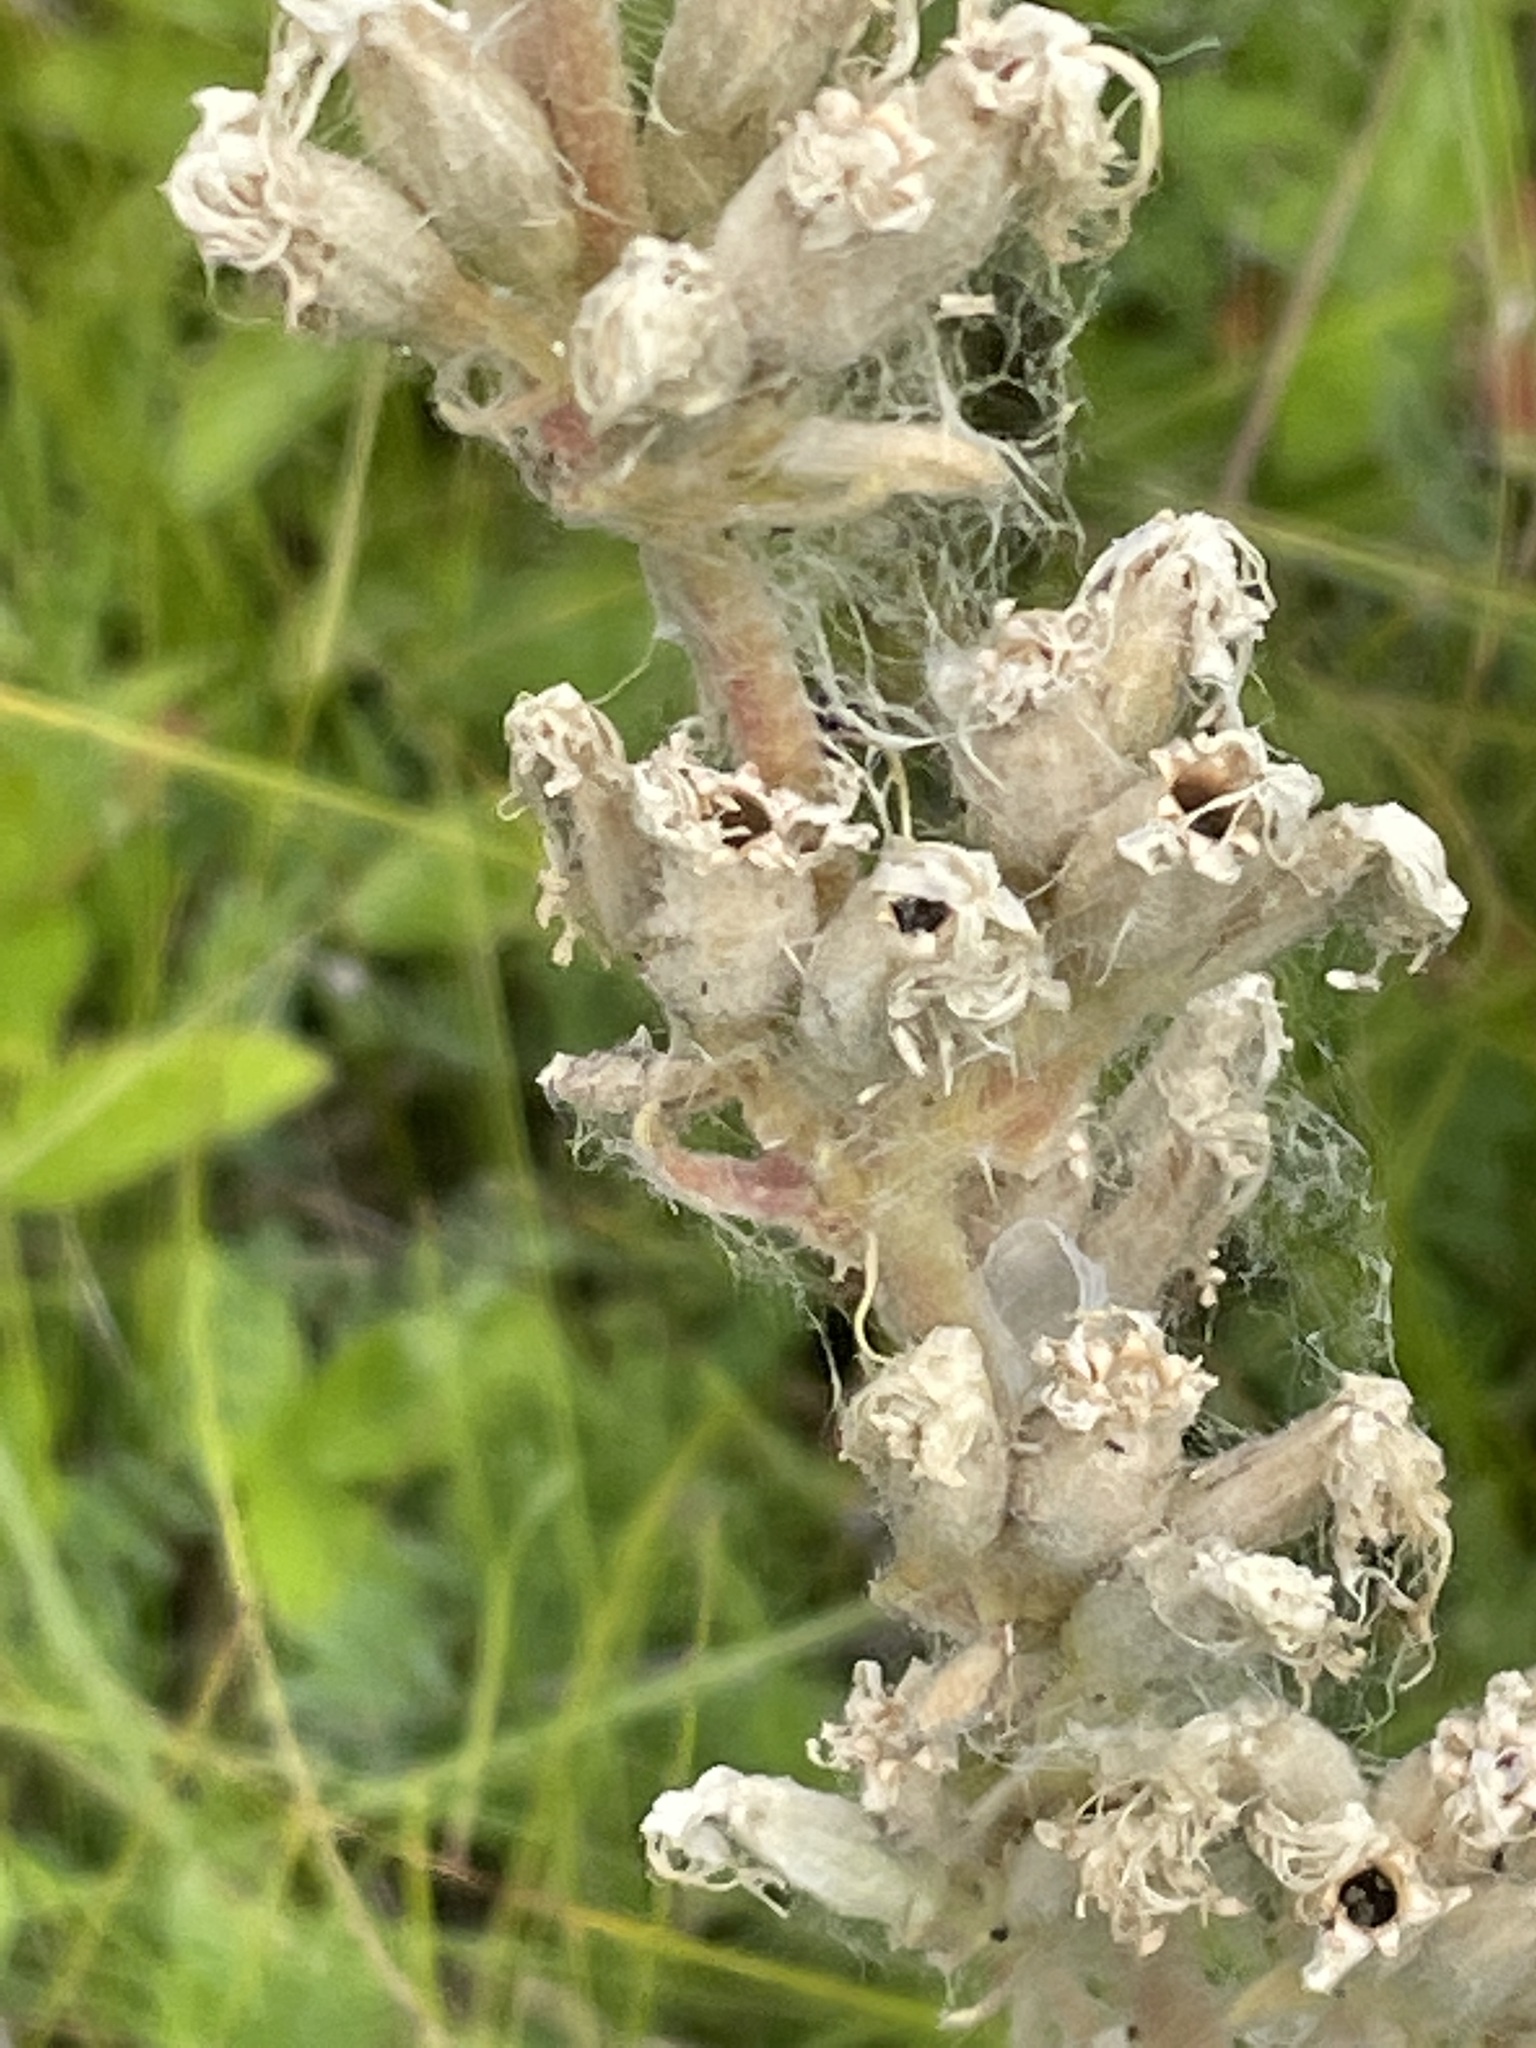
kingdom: Plantae
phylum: Tracheophyta
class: Magnoliopsida
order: Caryophyllales
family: Caryophyllaceae
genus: Silene
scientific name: Silene viscosa
